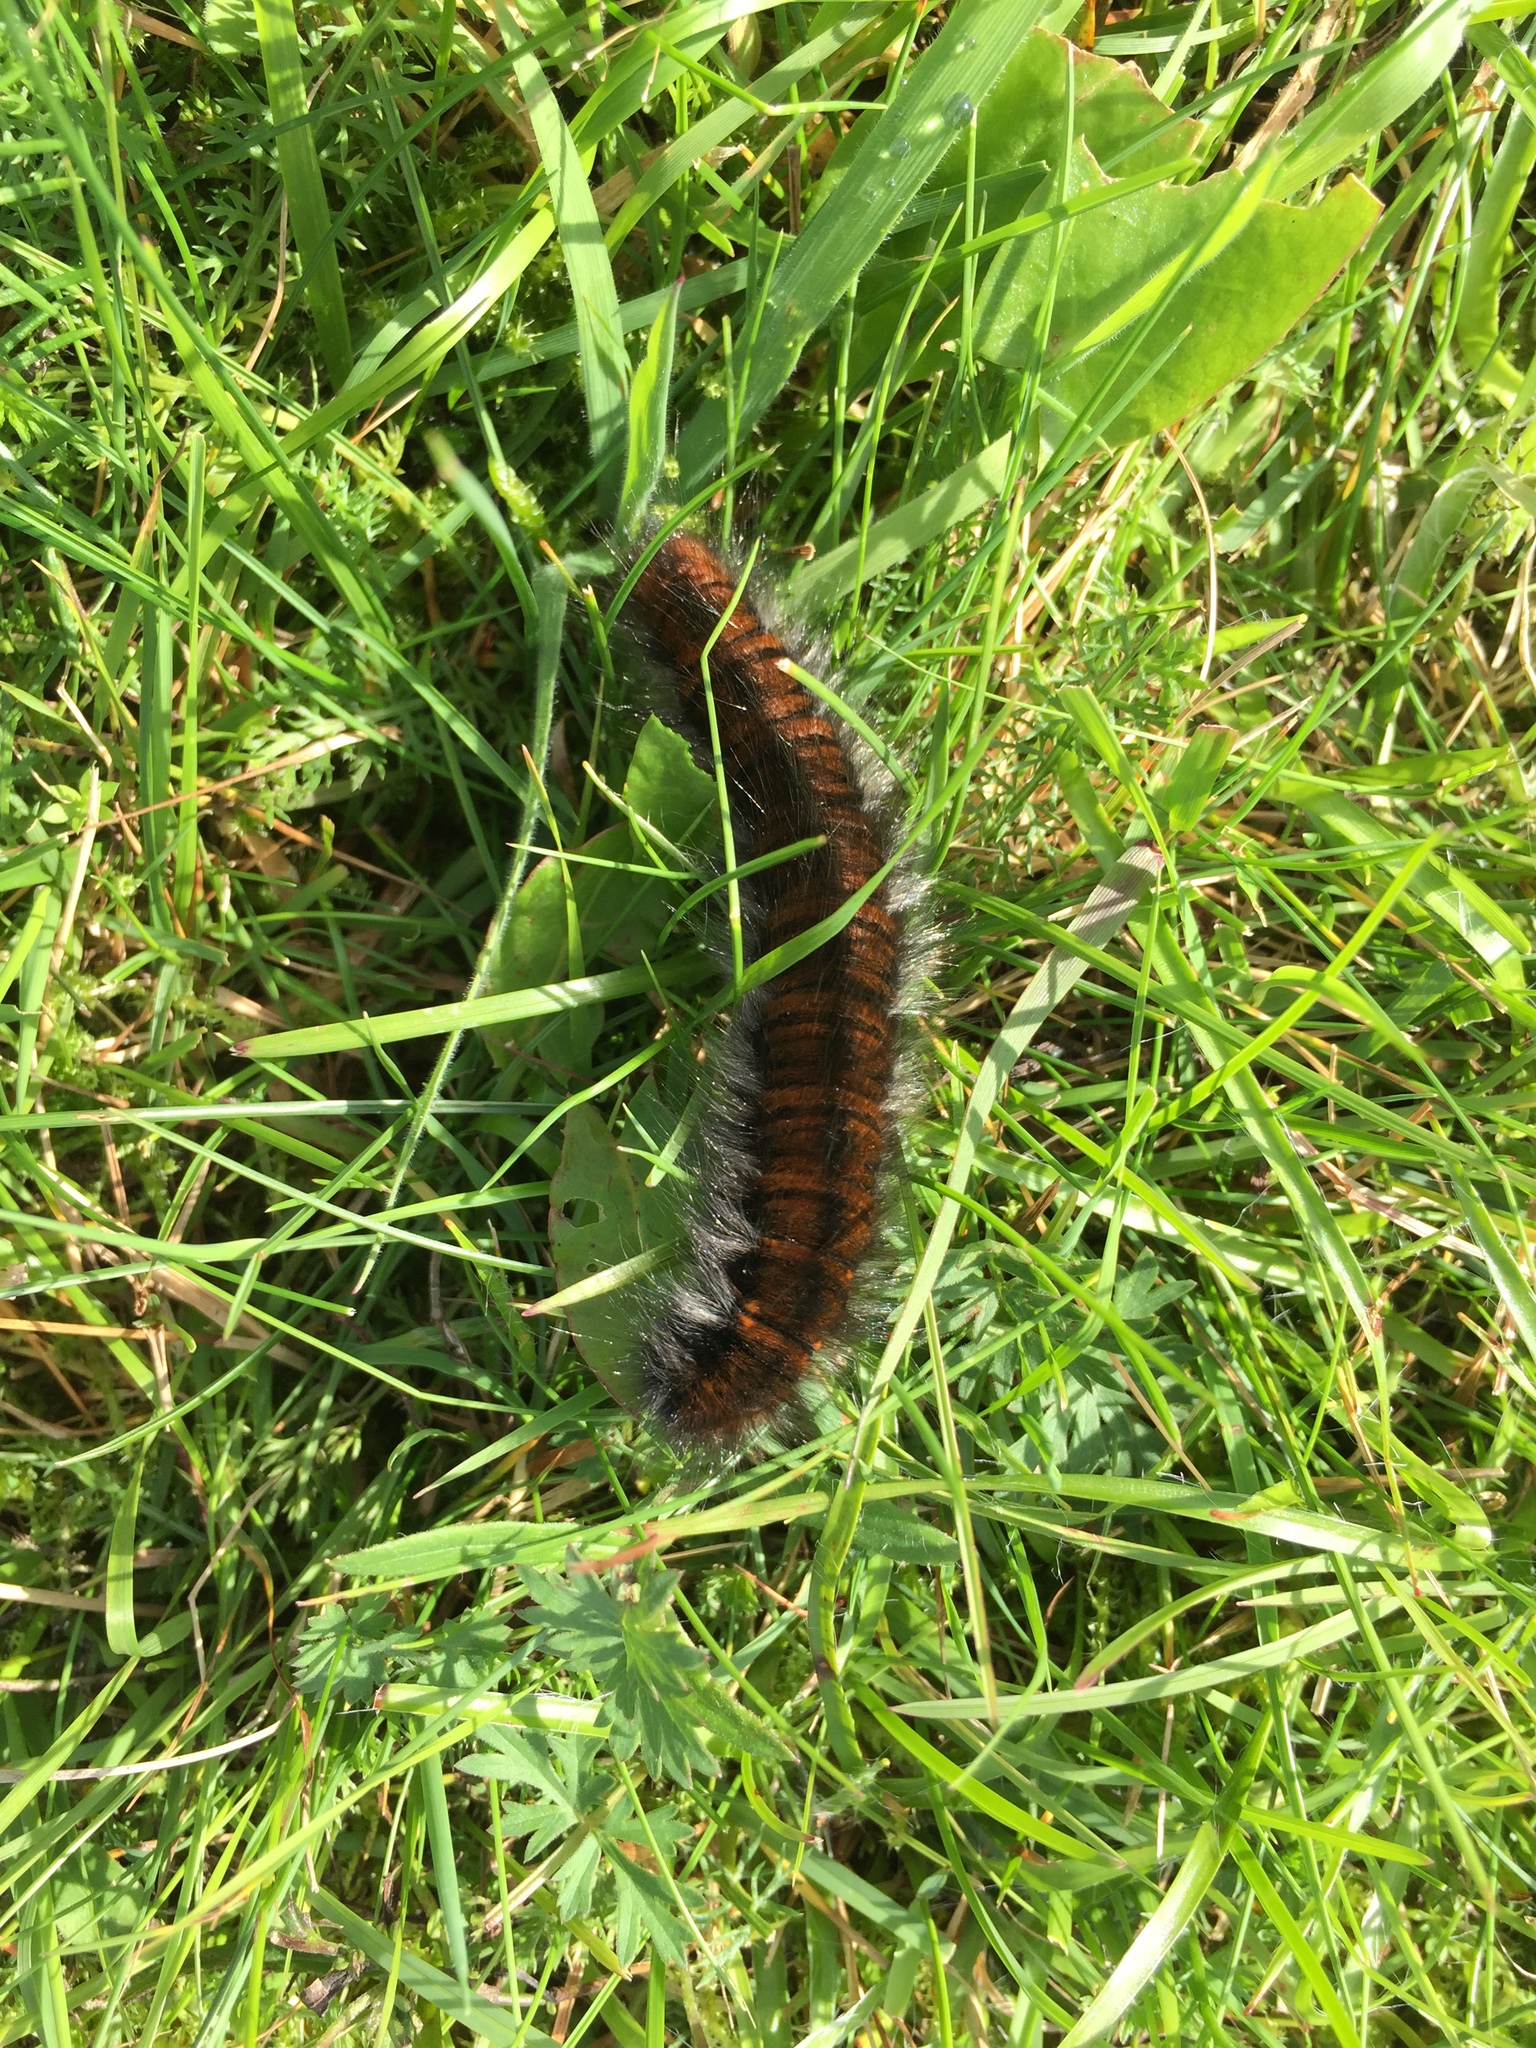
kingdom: Animalia
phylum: Arthropoda
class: Insecta
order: Lepidoptera
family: Lasiocampidae
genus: Macrothylacia
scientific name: Macrothylacia rubi
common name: Fox moth
